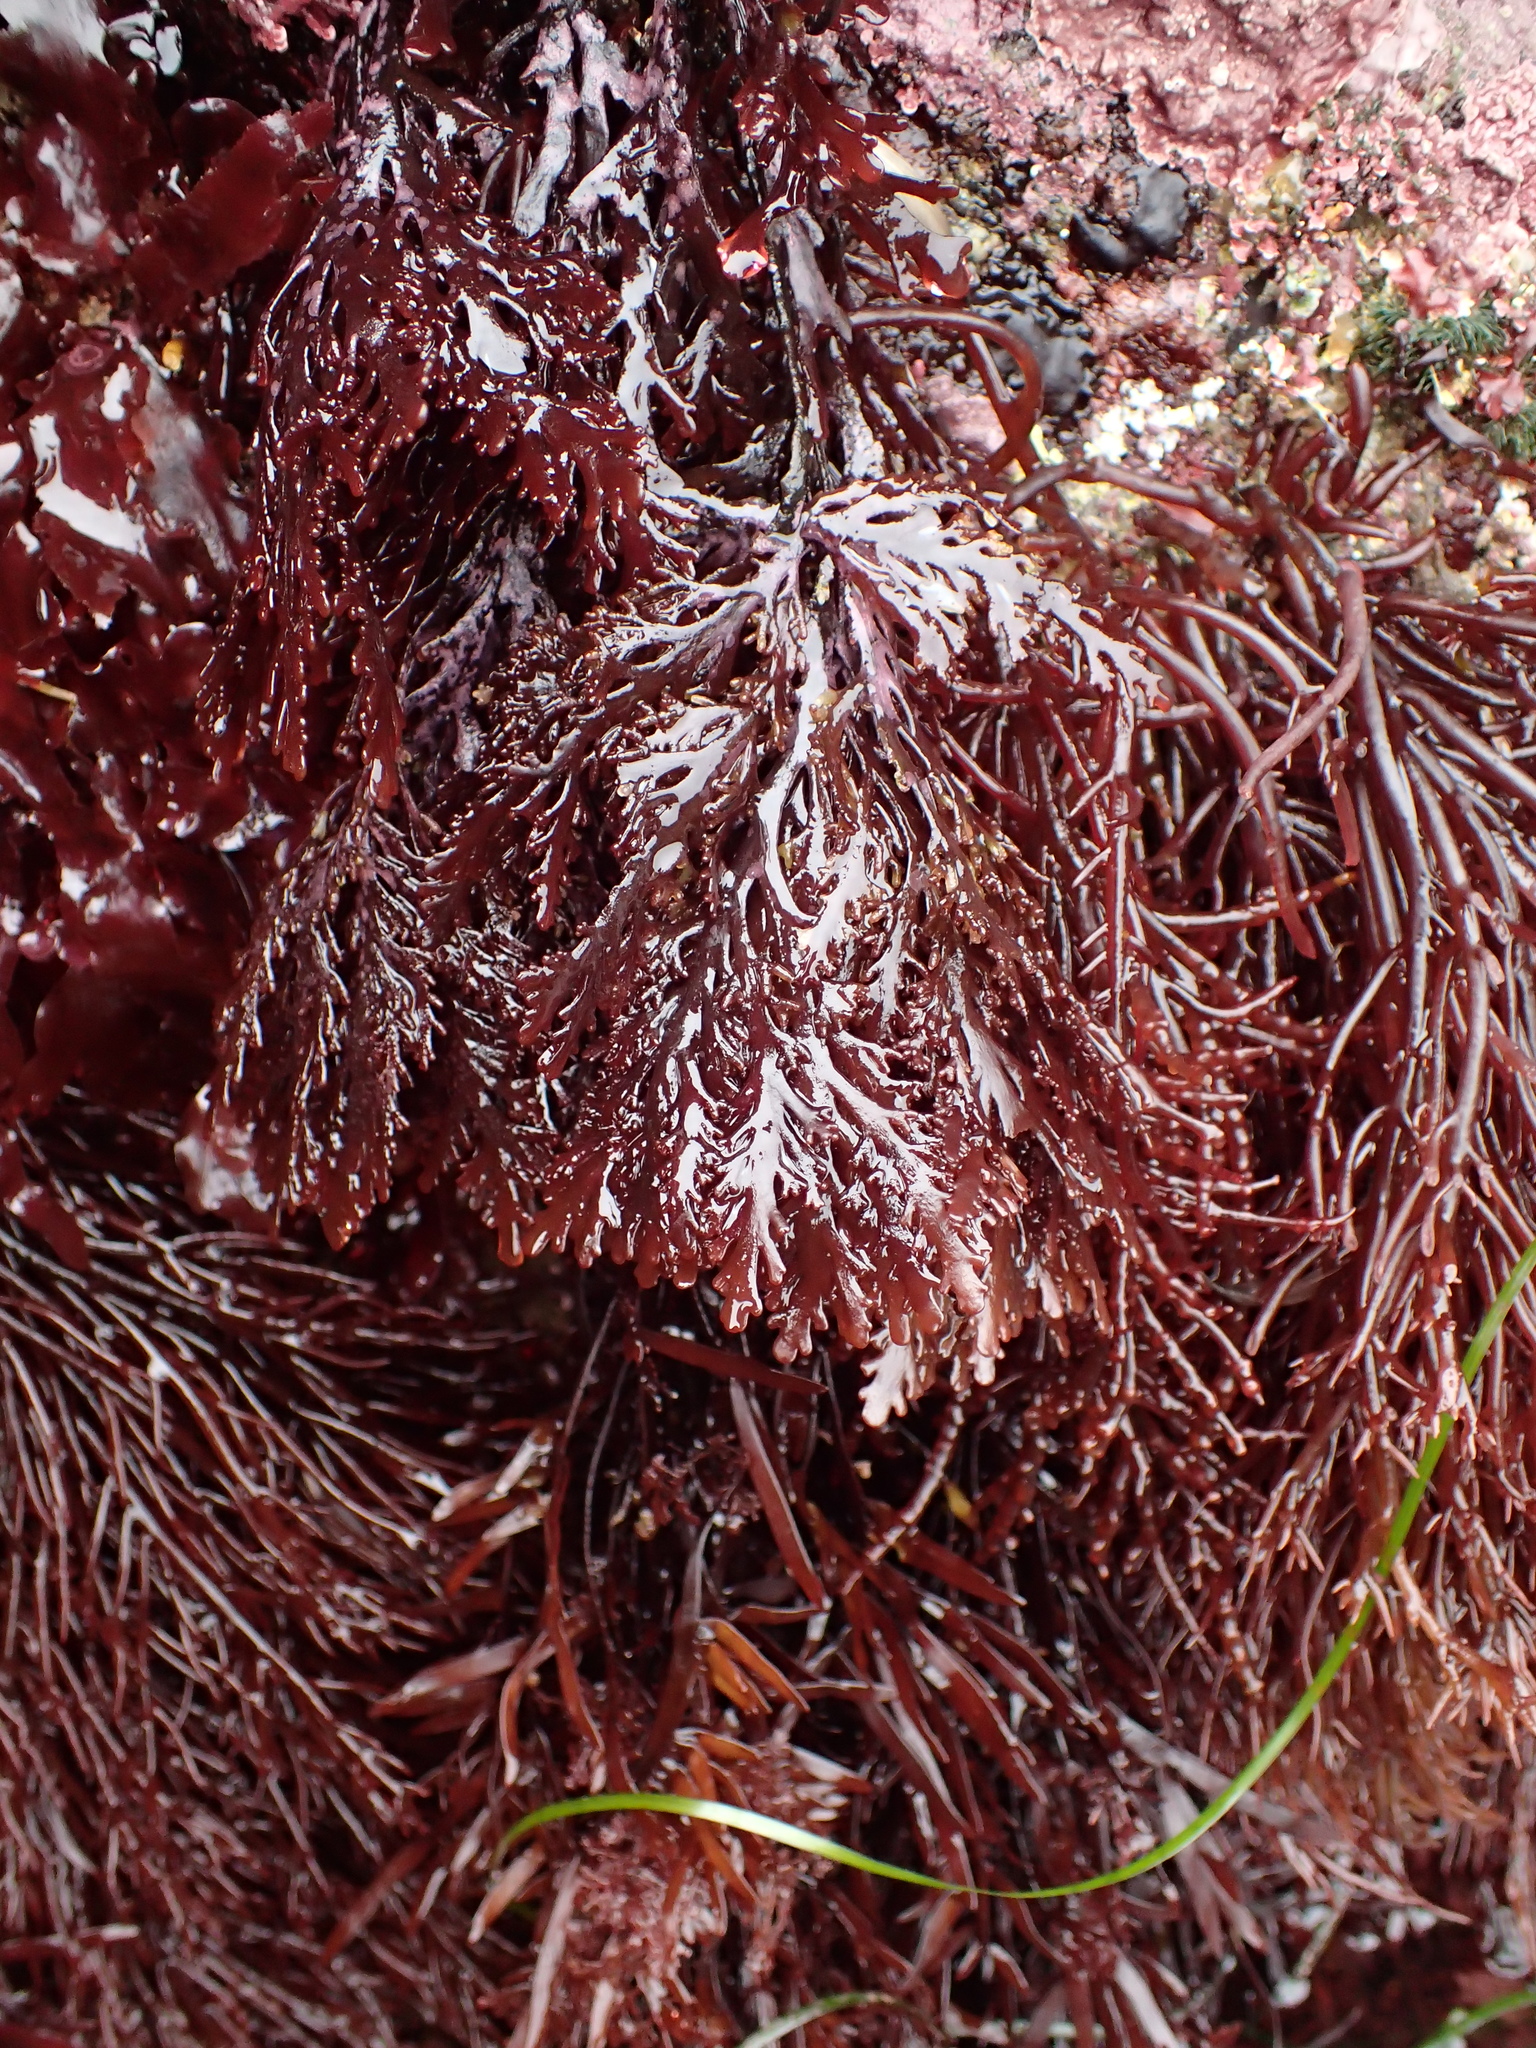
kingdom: Plantae
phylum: Rhodophyta
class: Florideophyceae
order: Ceramiales
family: Rhodomelaceae
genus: Osmundea
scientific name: Osmundea spectabilis
